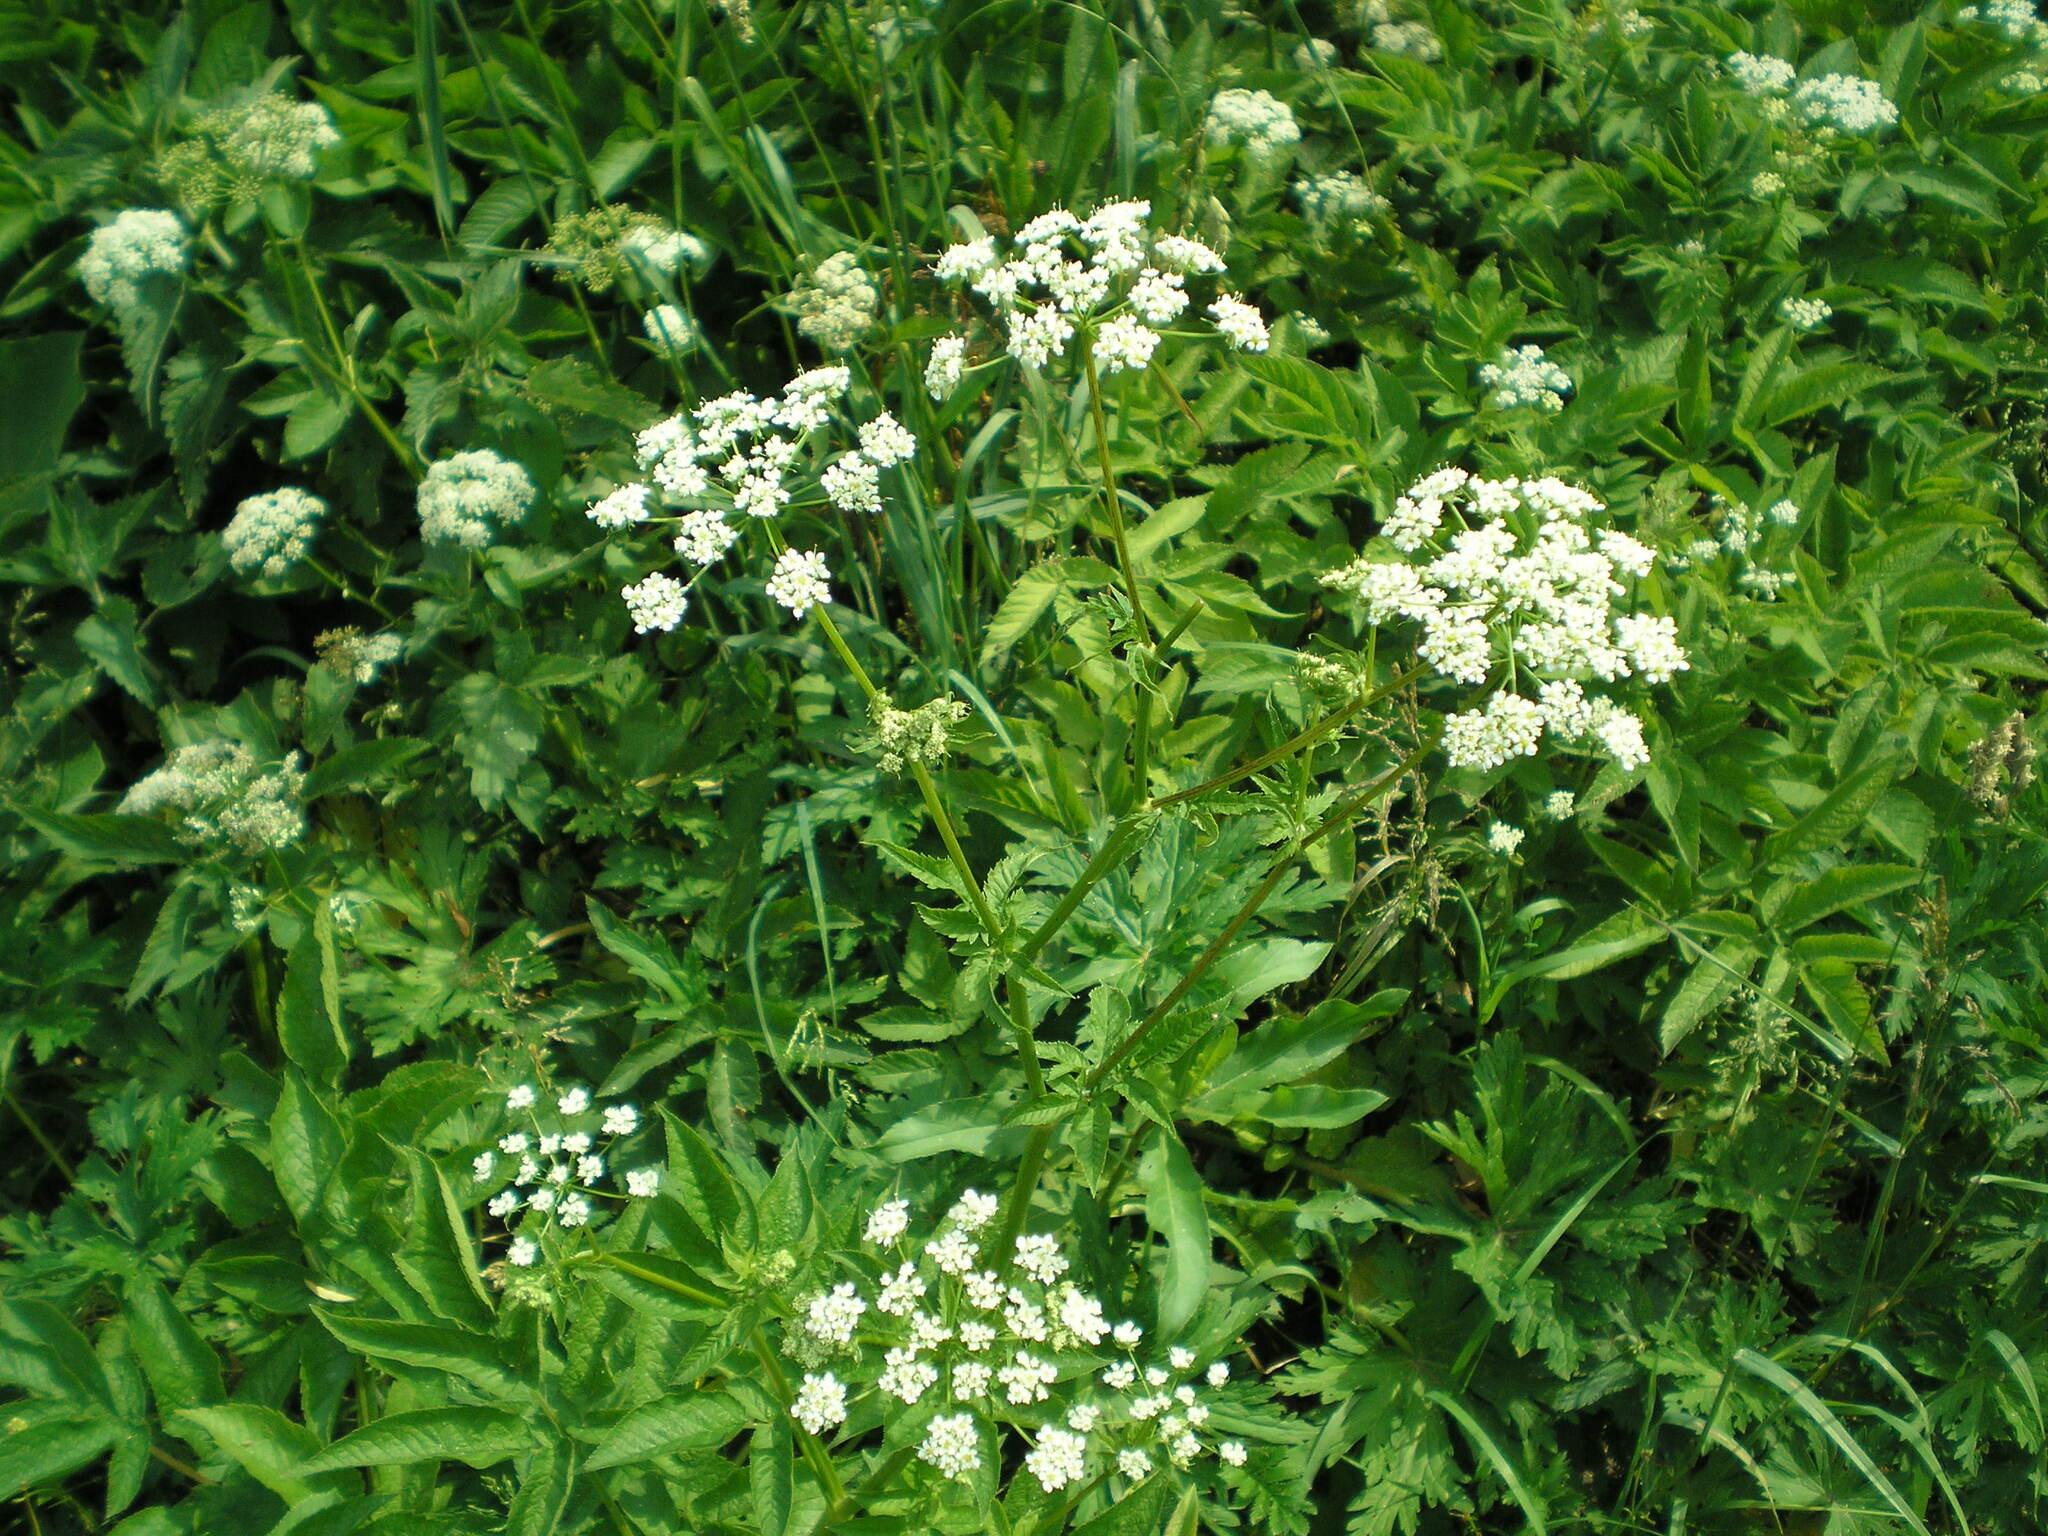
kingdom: Plantae
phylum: Tracheophyta
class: Magnoliopsida
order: Apiales
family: Apiaceae
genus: Chaerophyllum
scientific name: Chaerophyllum aromaticum
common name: Broadleaf chervil
